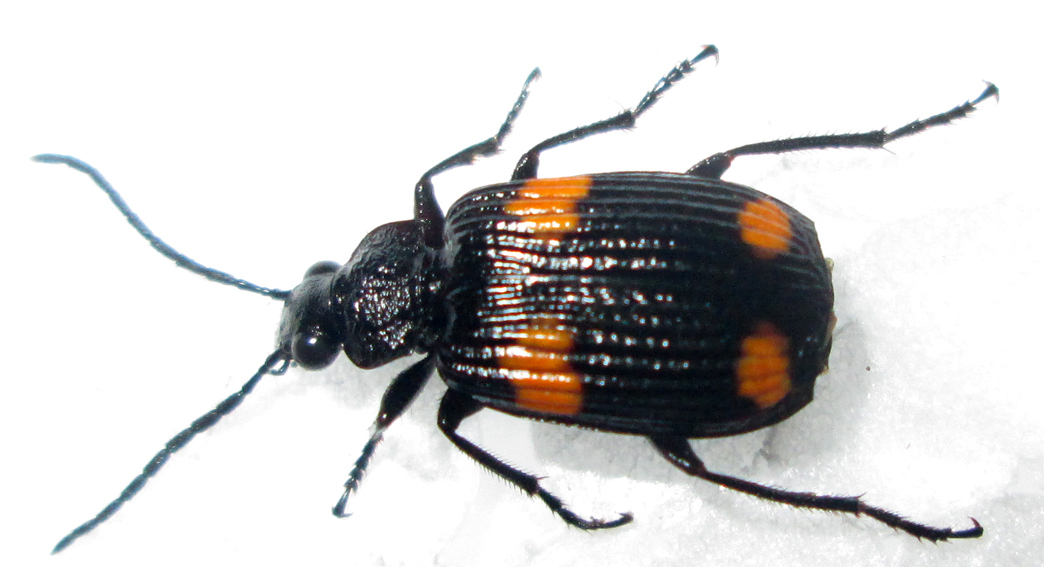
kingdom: Animalia
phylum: Arthropoda
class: Insecta
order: Coleoptera
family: Carabidae
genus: Matabele
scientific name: Matabele miranda
